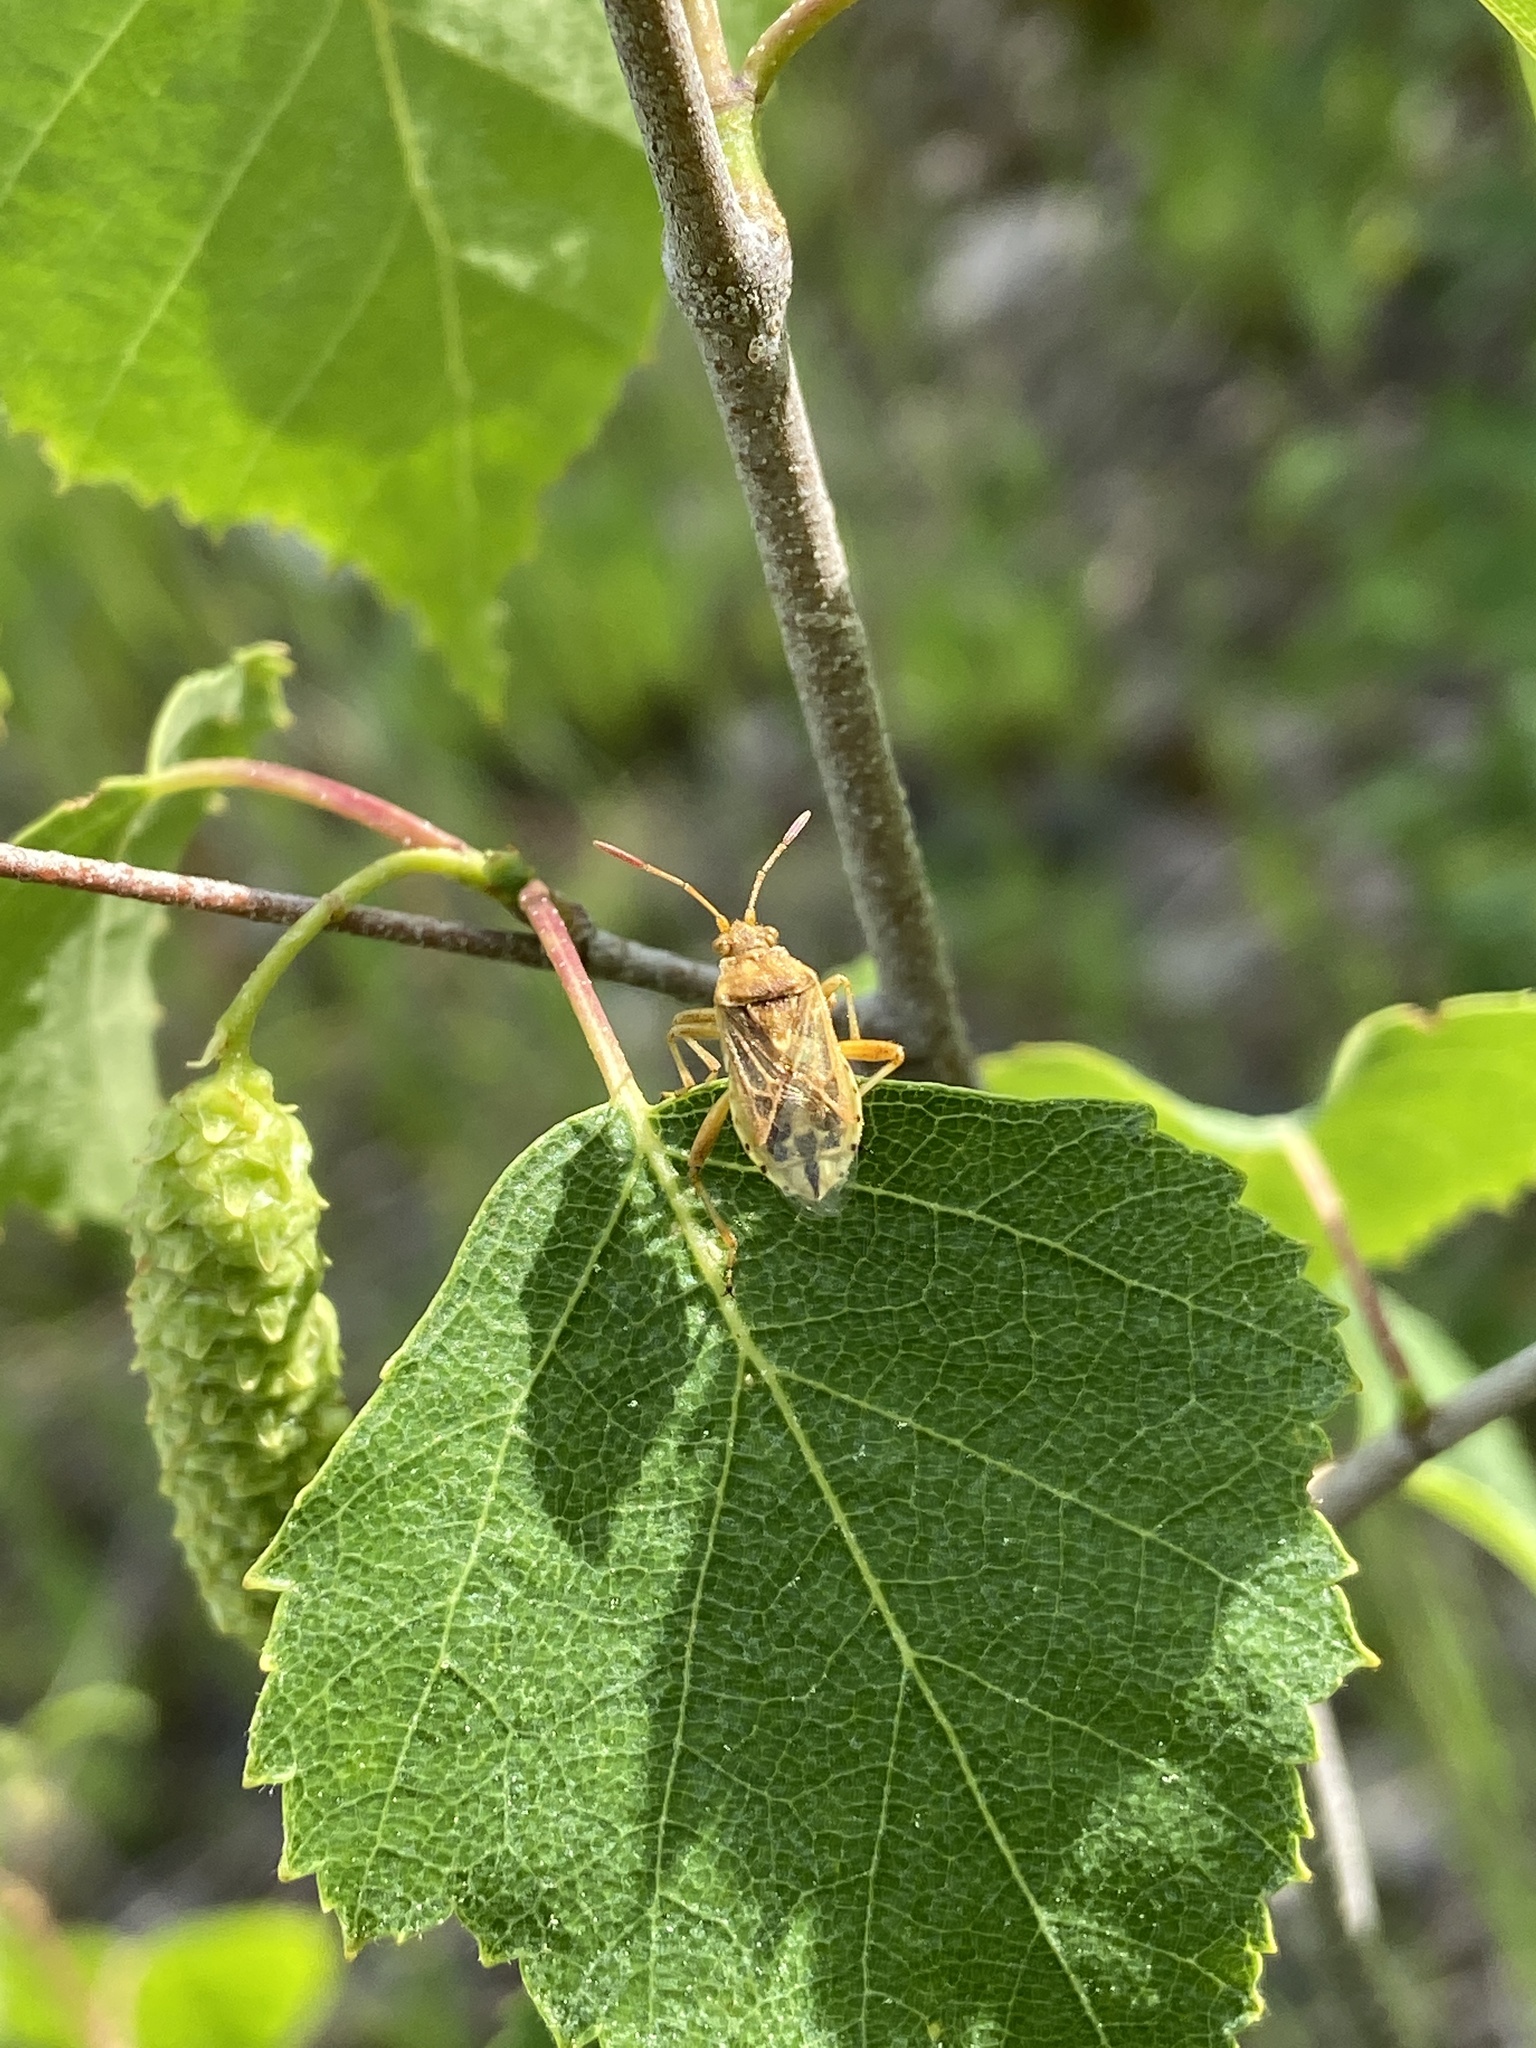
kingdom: Animalia
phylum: Arthropoda
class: Insecta
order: Hemiptera
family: Rhopalidae
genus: Stictopleurus
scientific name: Stictopleurus abutilon
